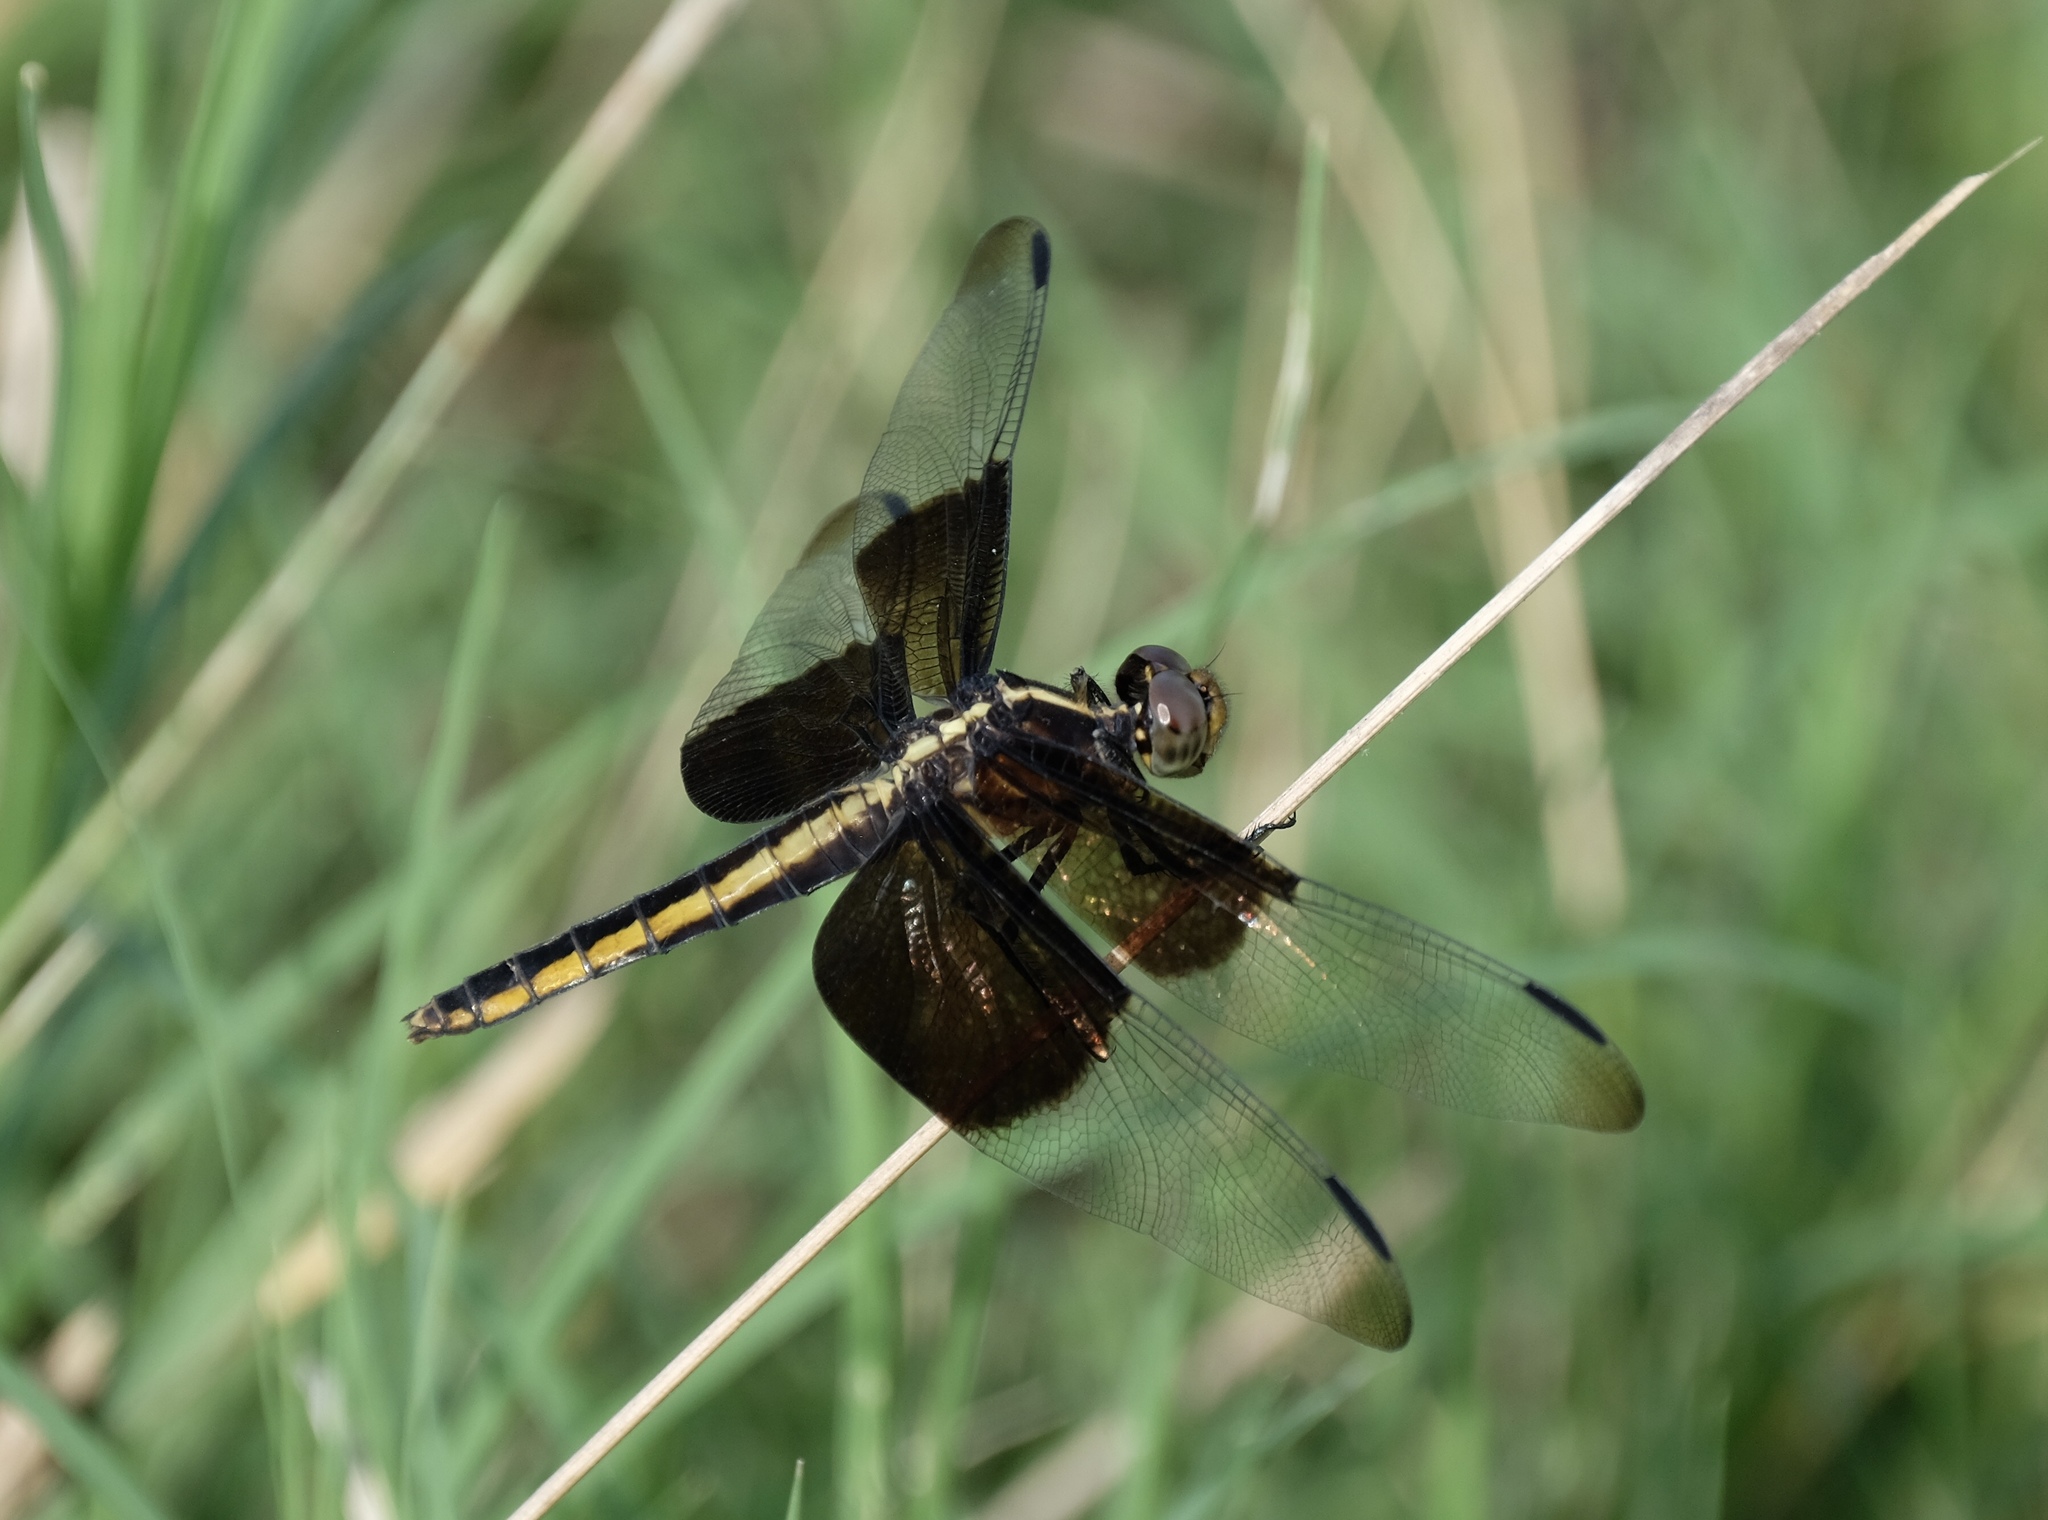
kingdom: Animalia
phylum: Arthropoda
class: Insecta
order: Odonata
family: Libellulidae
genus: Libellula
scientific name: Libellula luctuosa
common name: Widow skimmer
